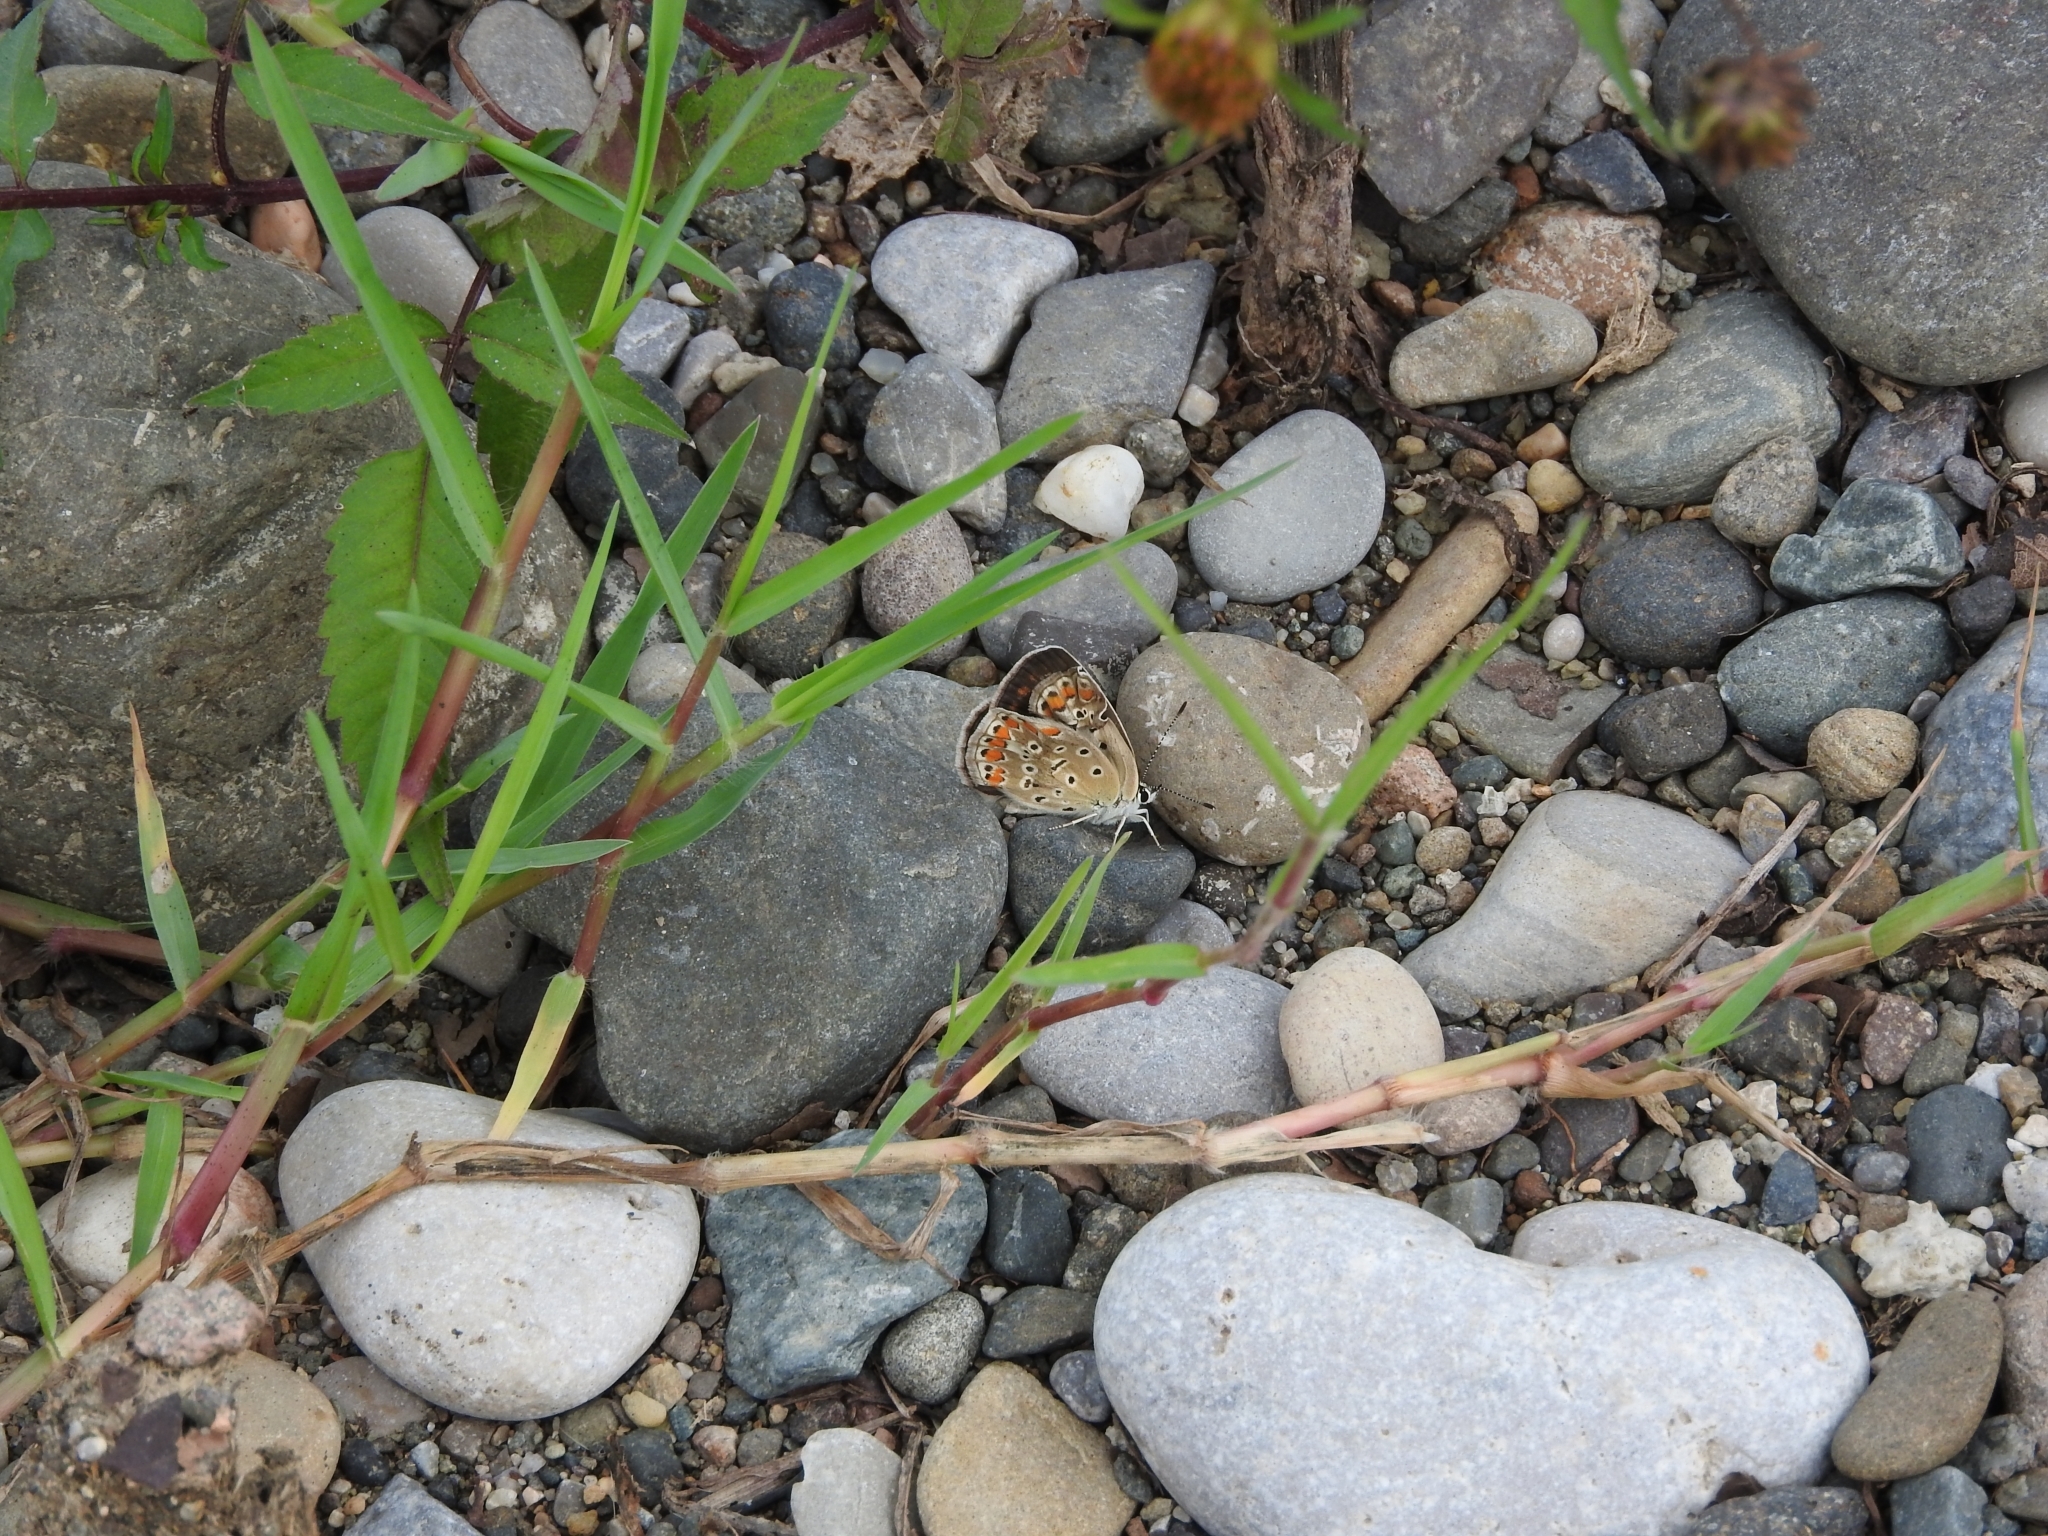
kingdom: Animalia
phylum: Arthropoda
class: Insecta
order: Lepidoptera
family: Lycaenidae
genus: Polyommatus
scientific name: Polyommatus icarus
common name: Common blue
